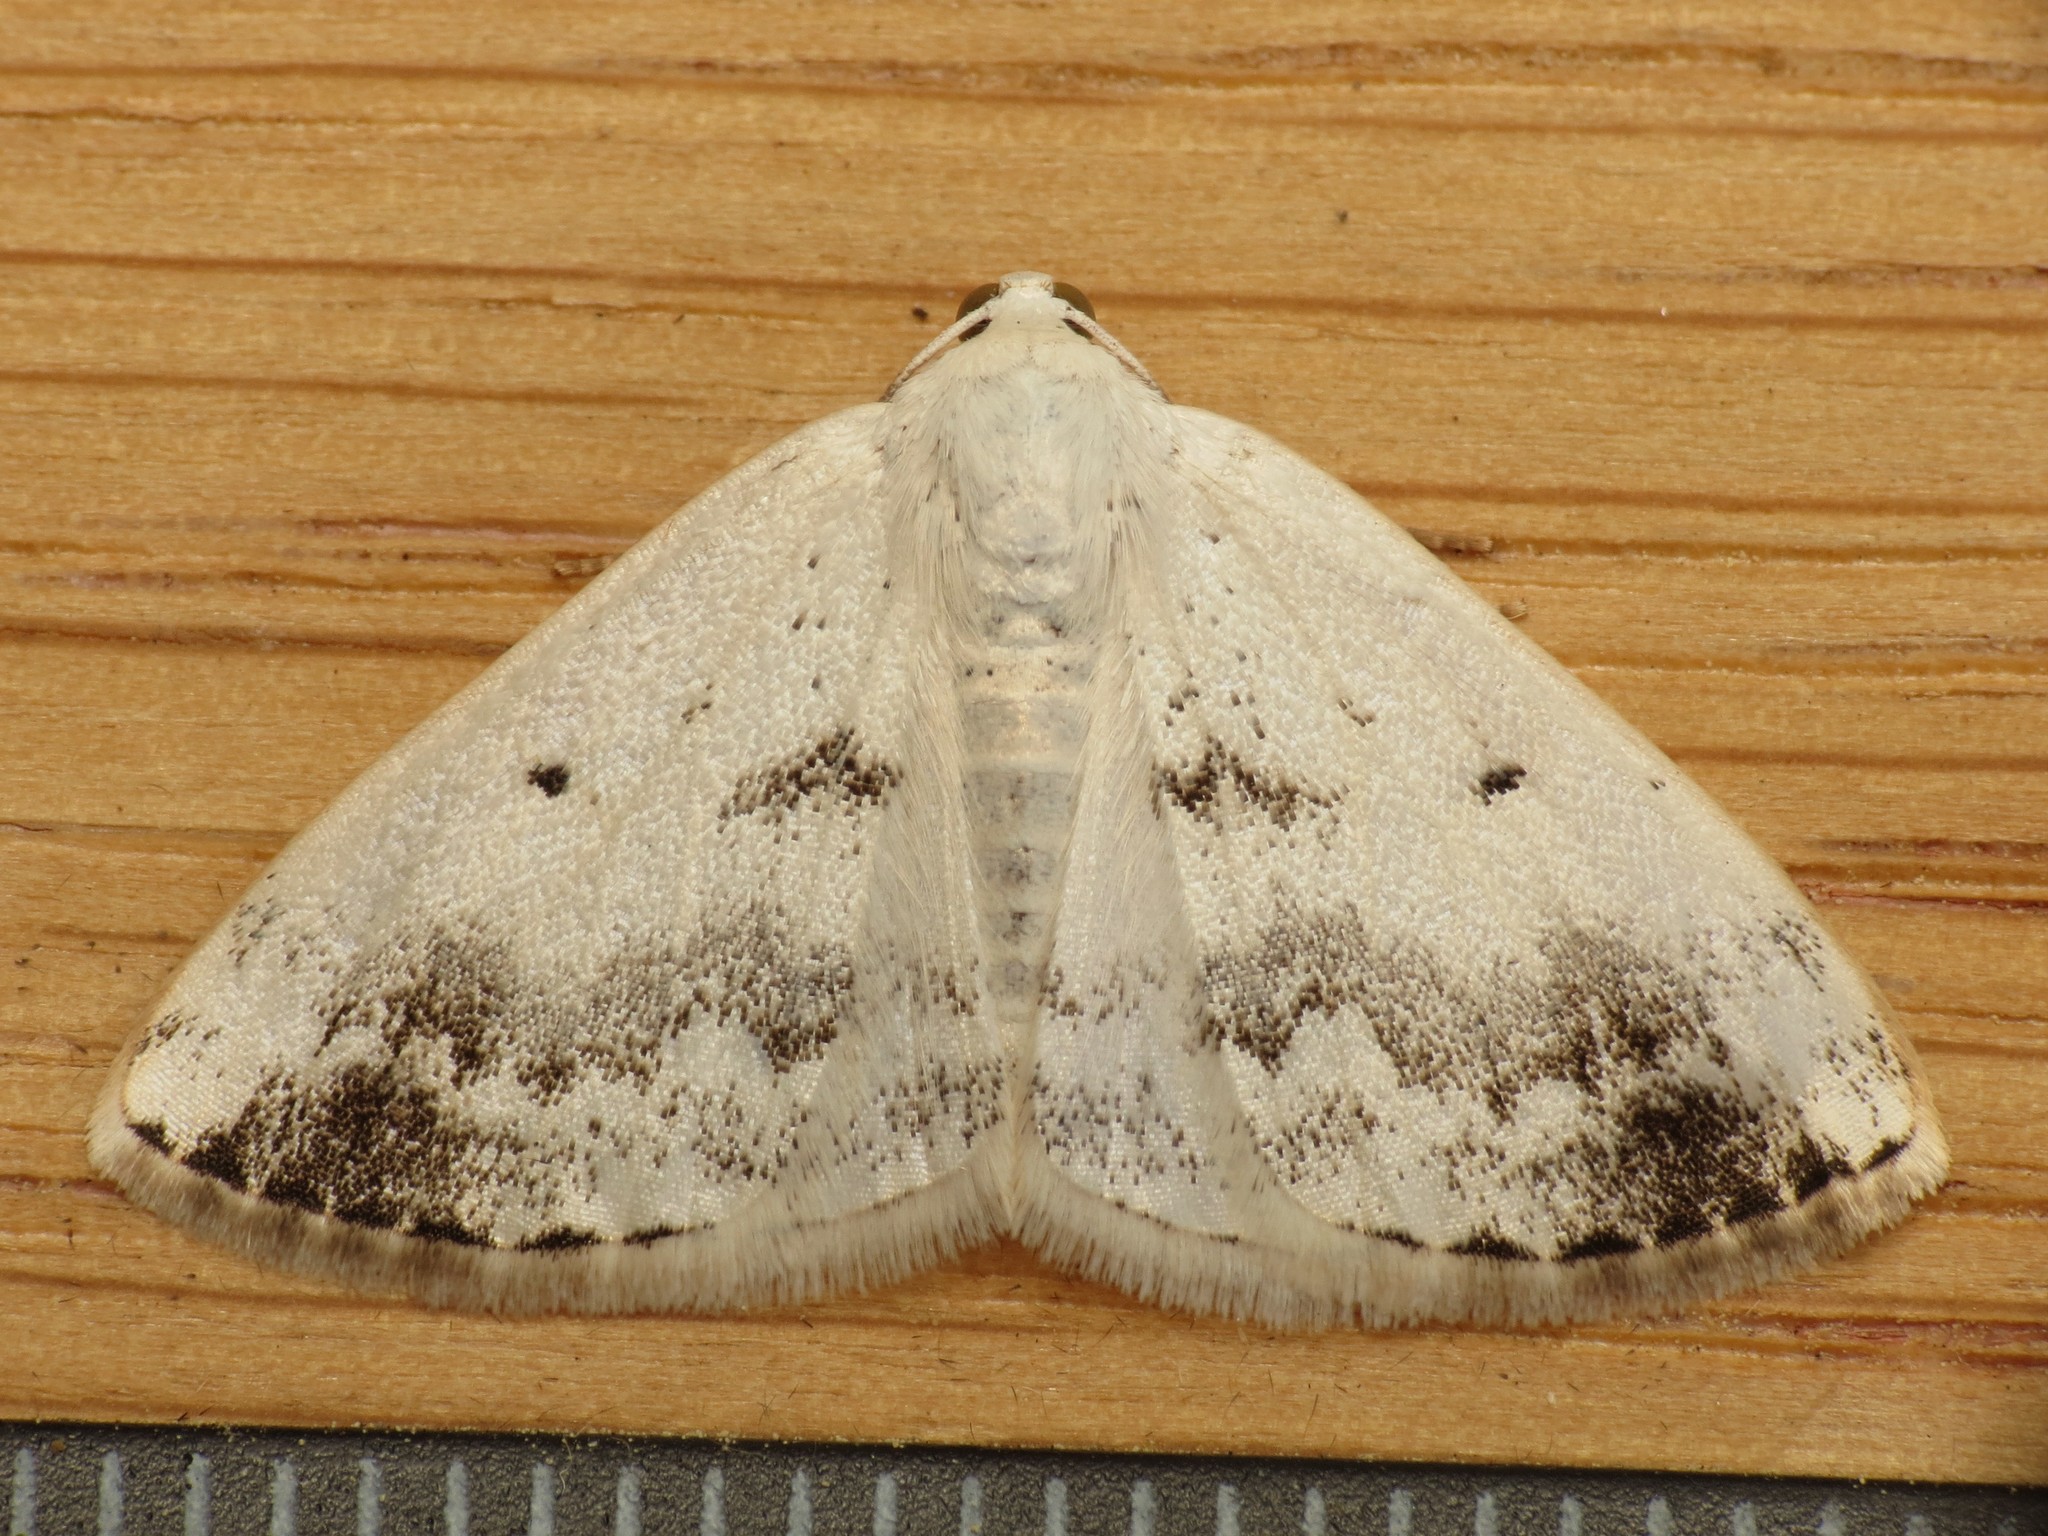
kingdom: Animalia
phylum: Arthropoda
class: Insecta
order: Lepidoptera
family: Geometridae
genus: Lomographa
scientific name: Lomographa temerata
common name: Clouded silver
